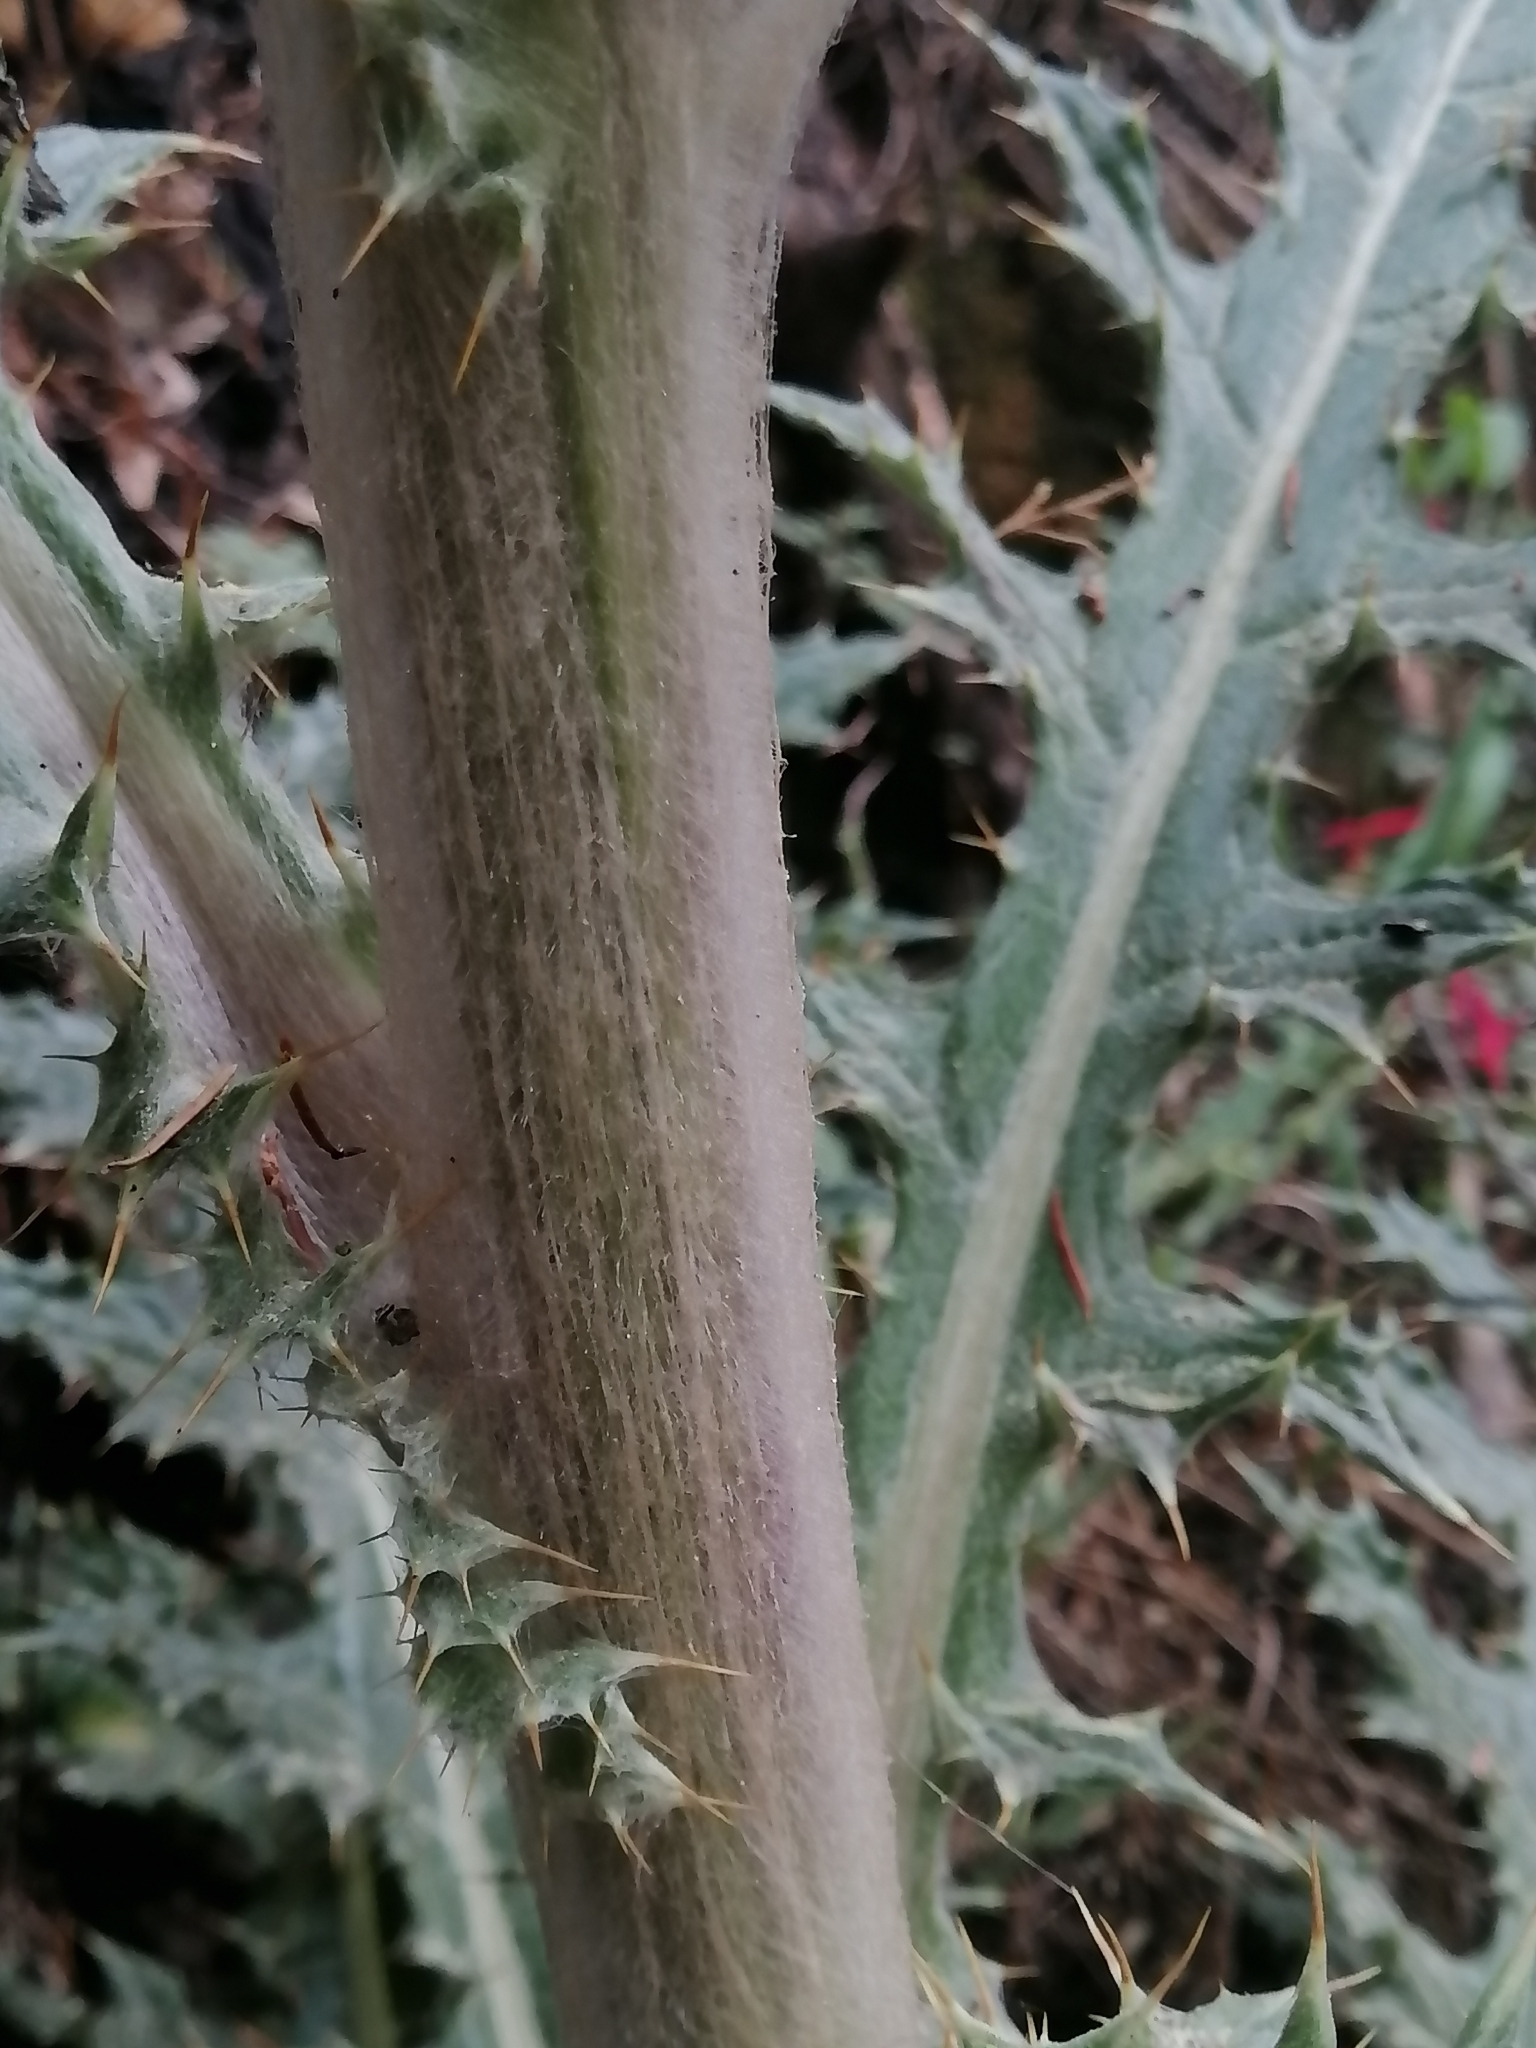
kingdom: Plantae
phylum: Tracheophyta
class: Magnoliopsida
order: Asterales
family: Asteraceae
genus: Cirsium
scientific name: Cirsium ehrenbergii
